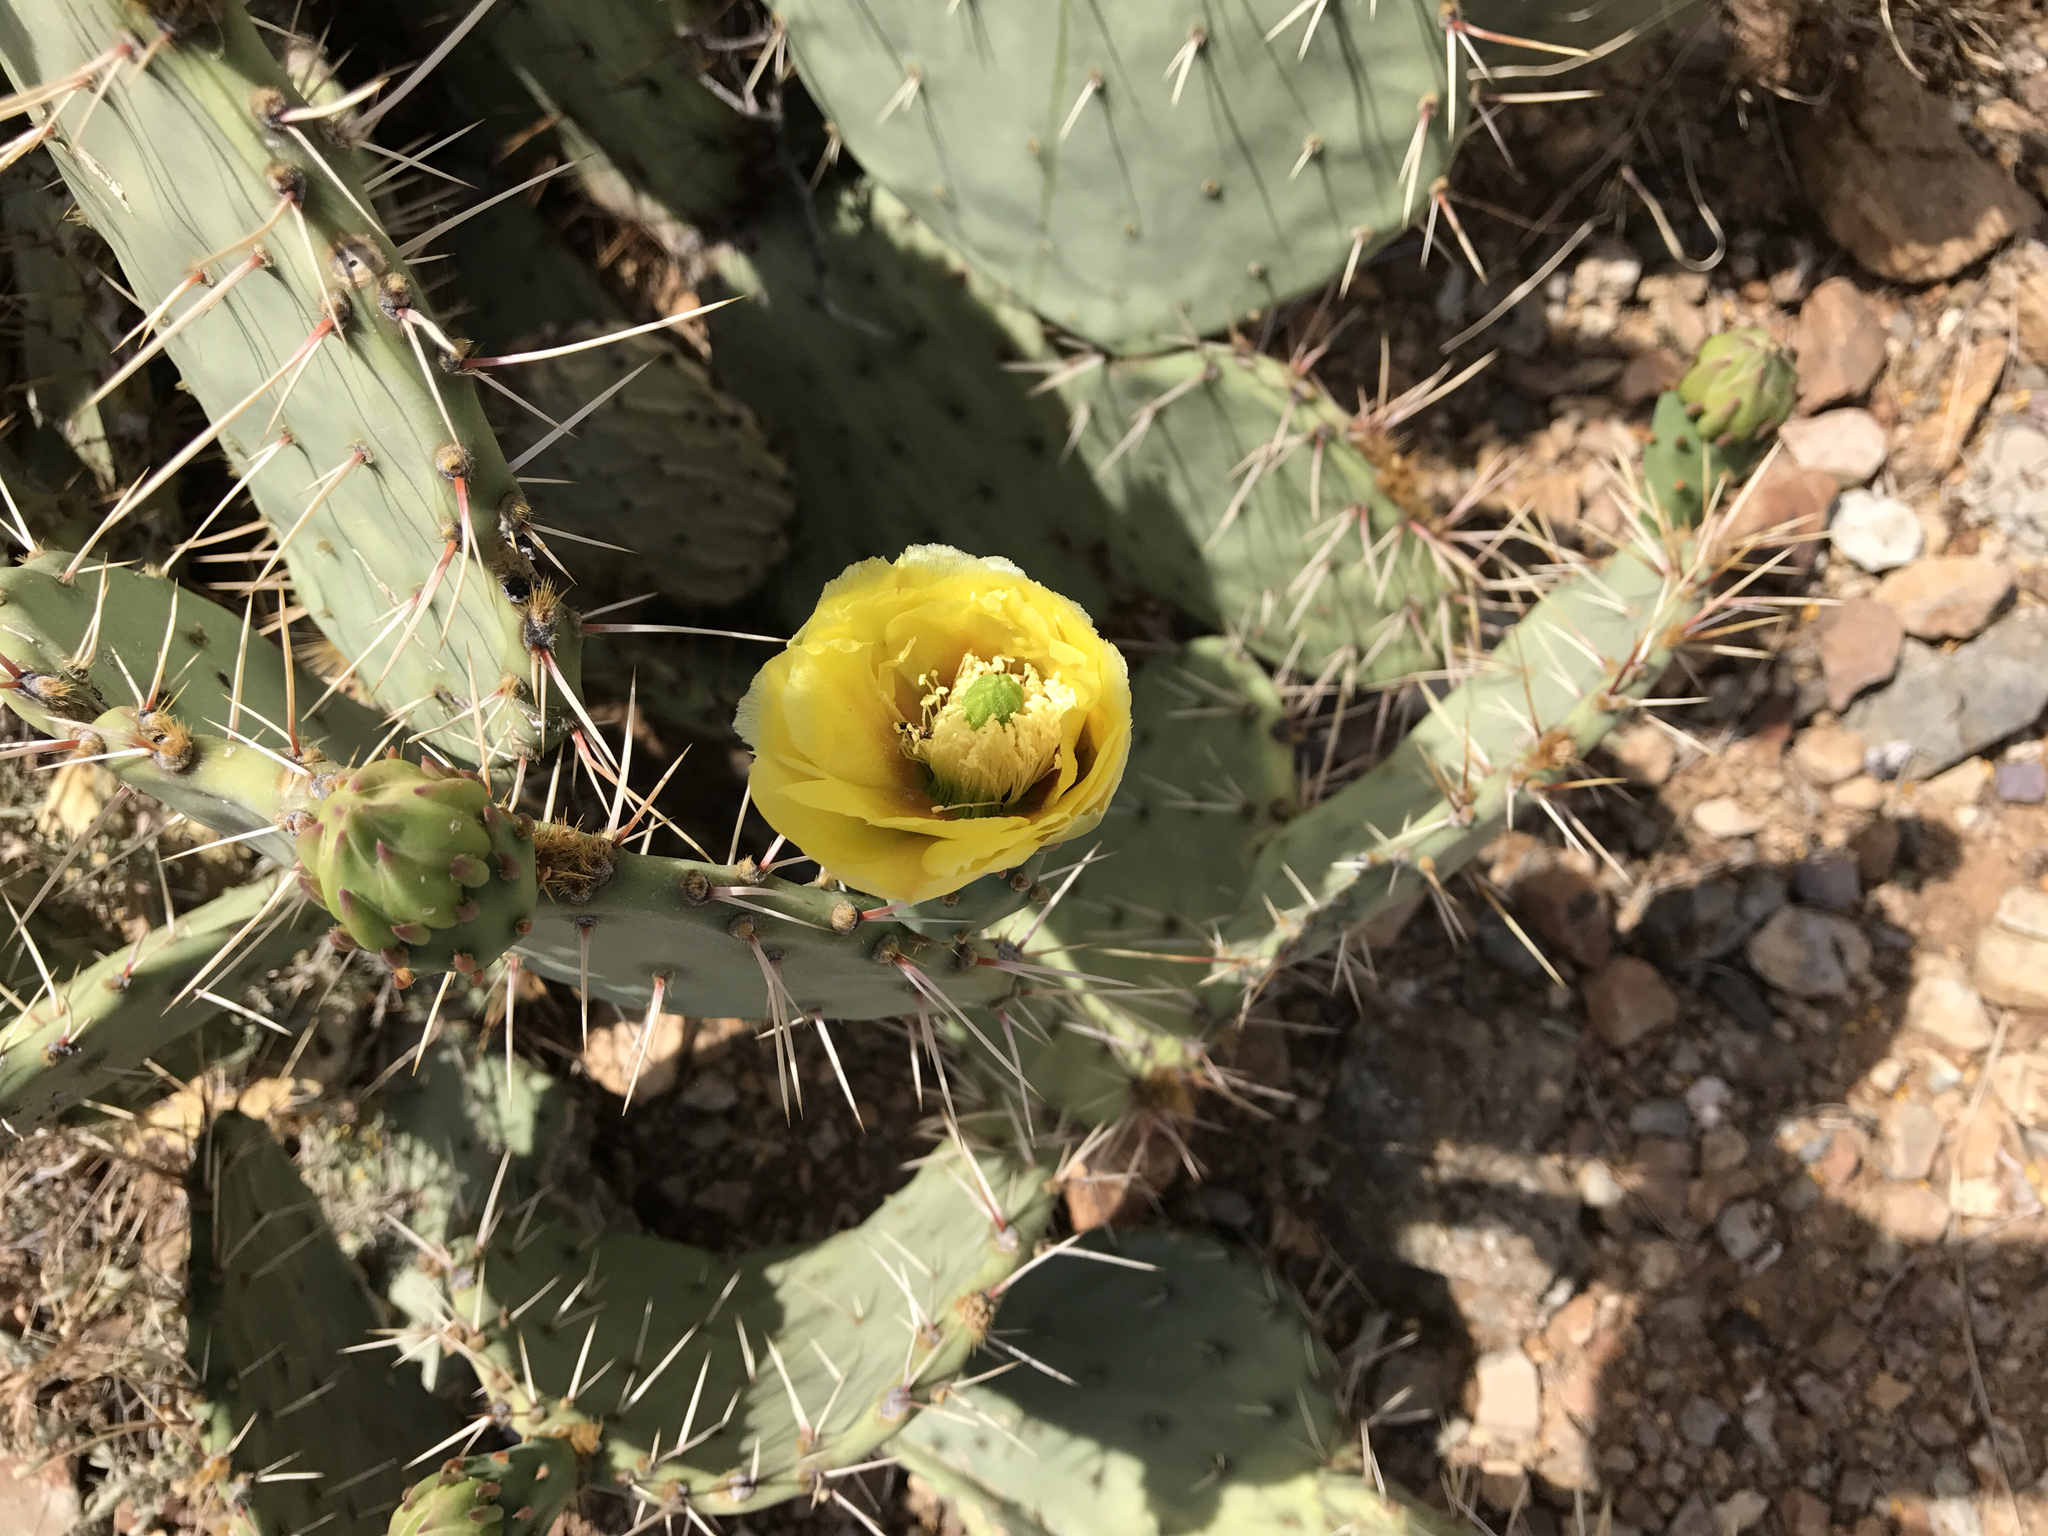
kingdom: Plantae
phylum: Tracheophyta
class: Magnoliopsida
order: Caryophyllales
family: Cactaceae
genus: Opuntia
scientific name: Opuntia engelmannii
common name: Cactus-apple
